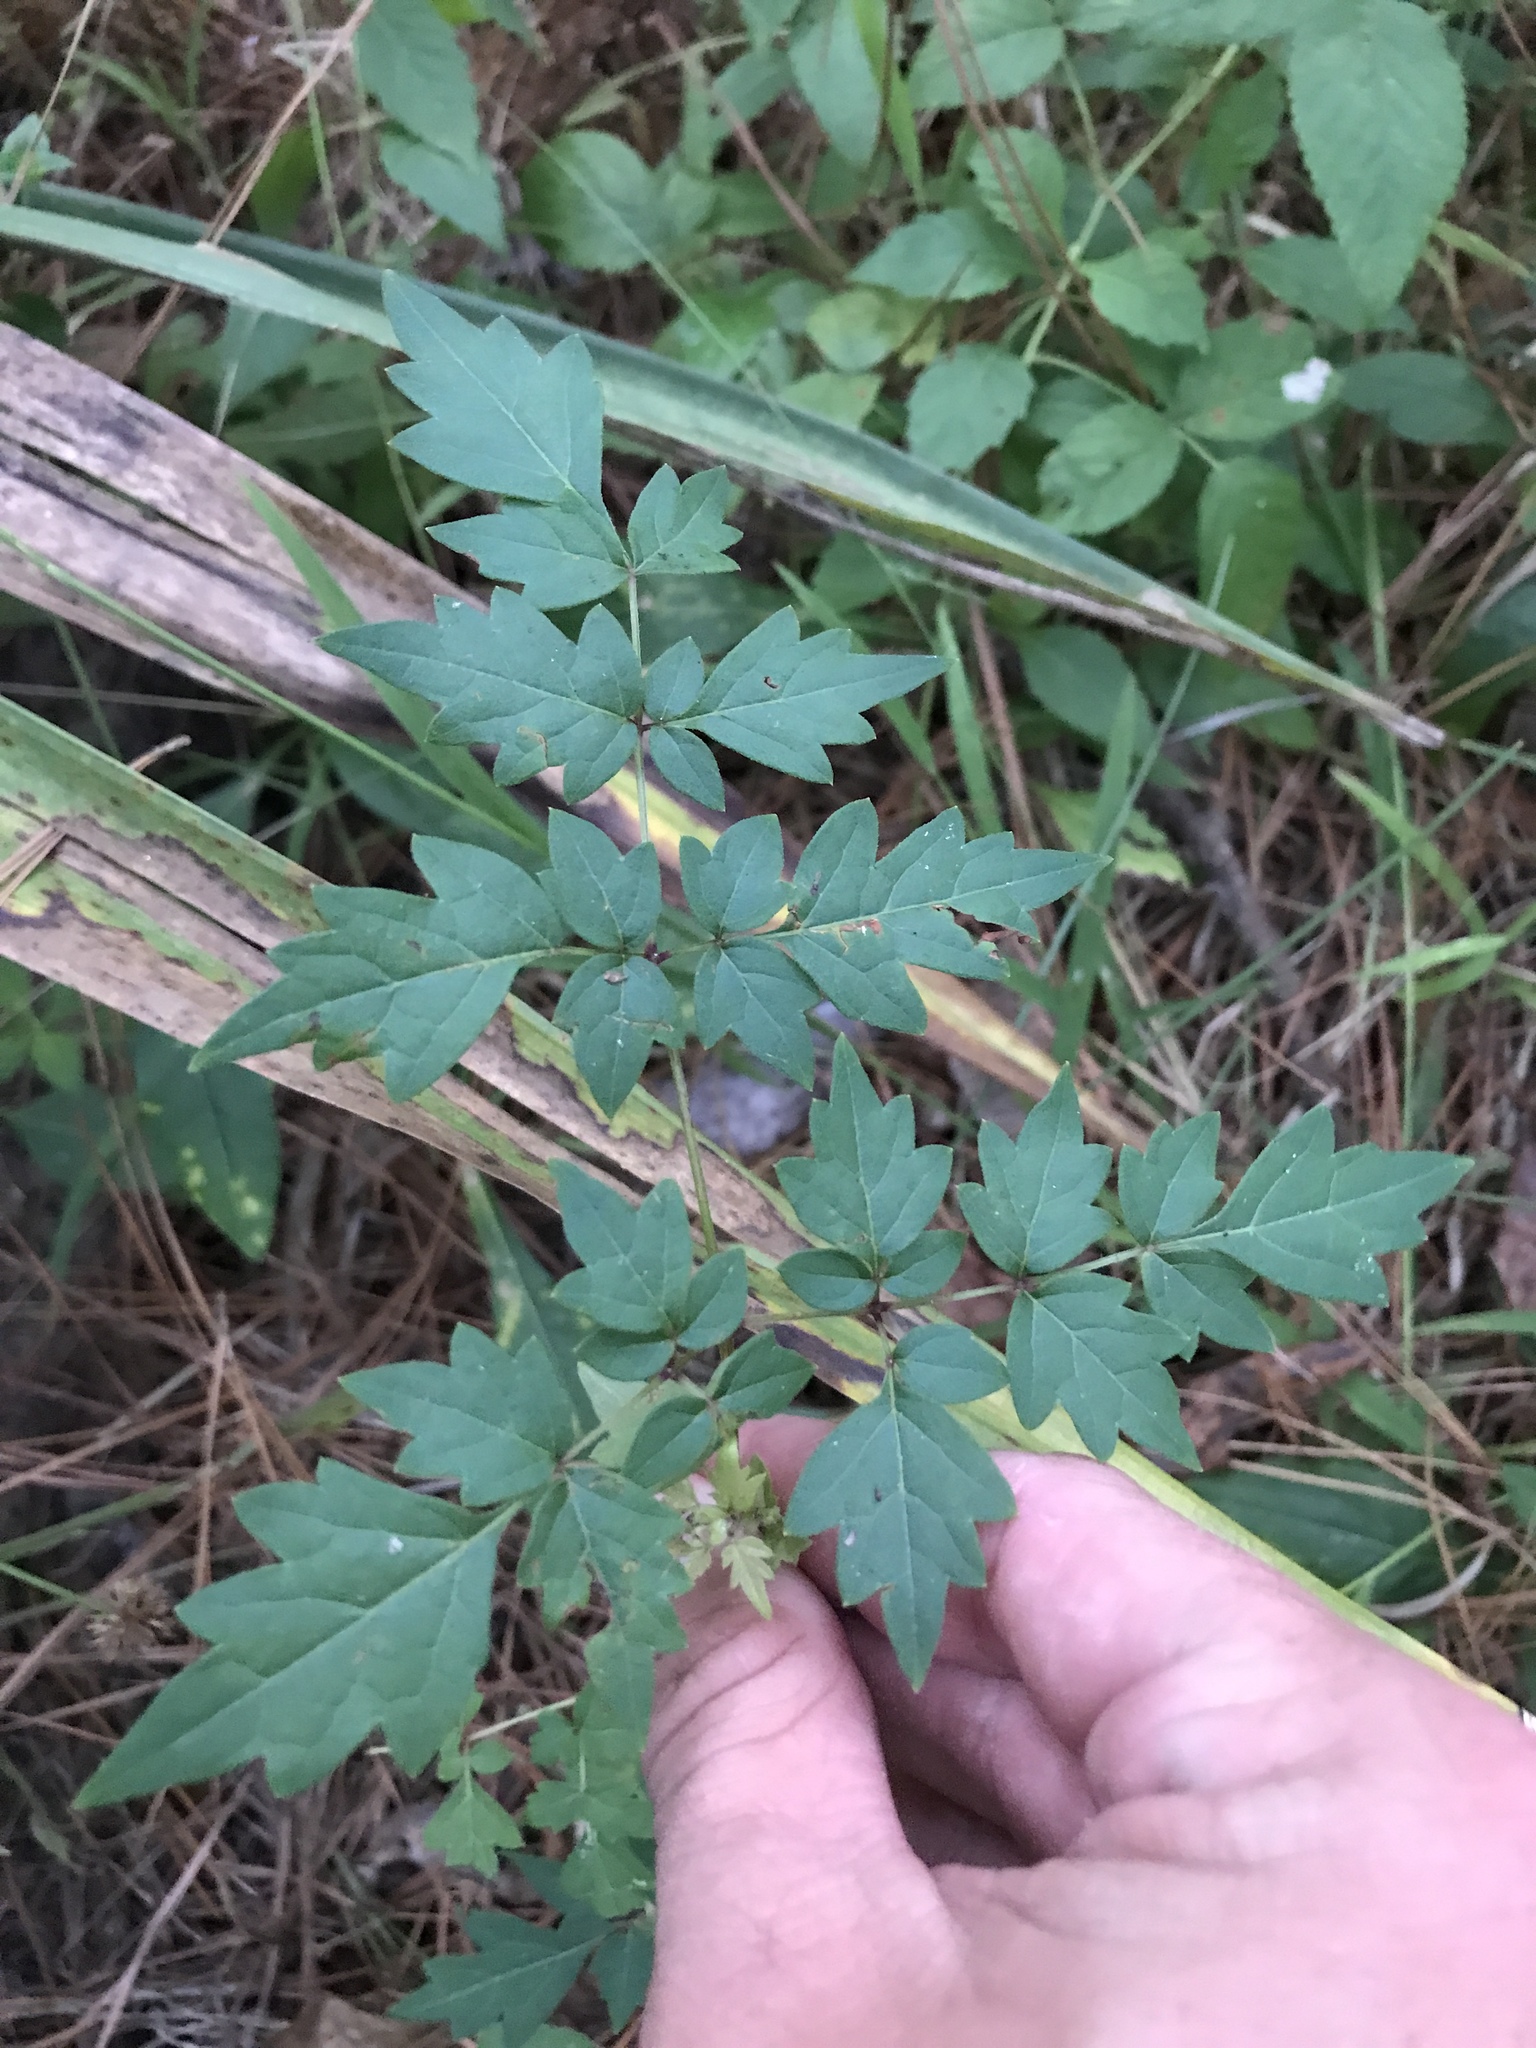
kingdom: Plantae
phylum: Tracheophyta
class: Magnoliopsida
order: Vitales
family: Vitaceae
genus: Nekemias
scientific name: Nekemias arborea
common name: Peppervine
